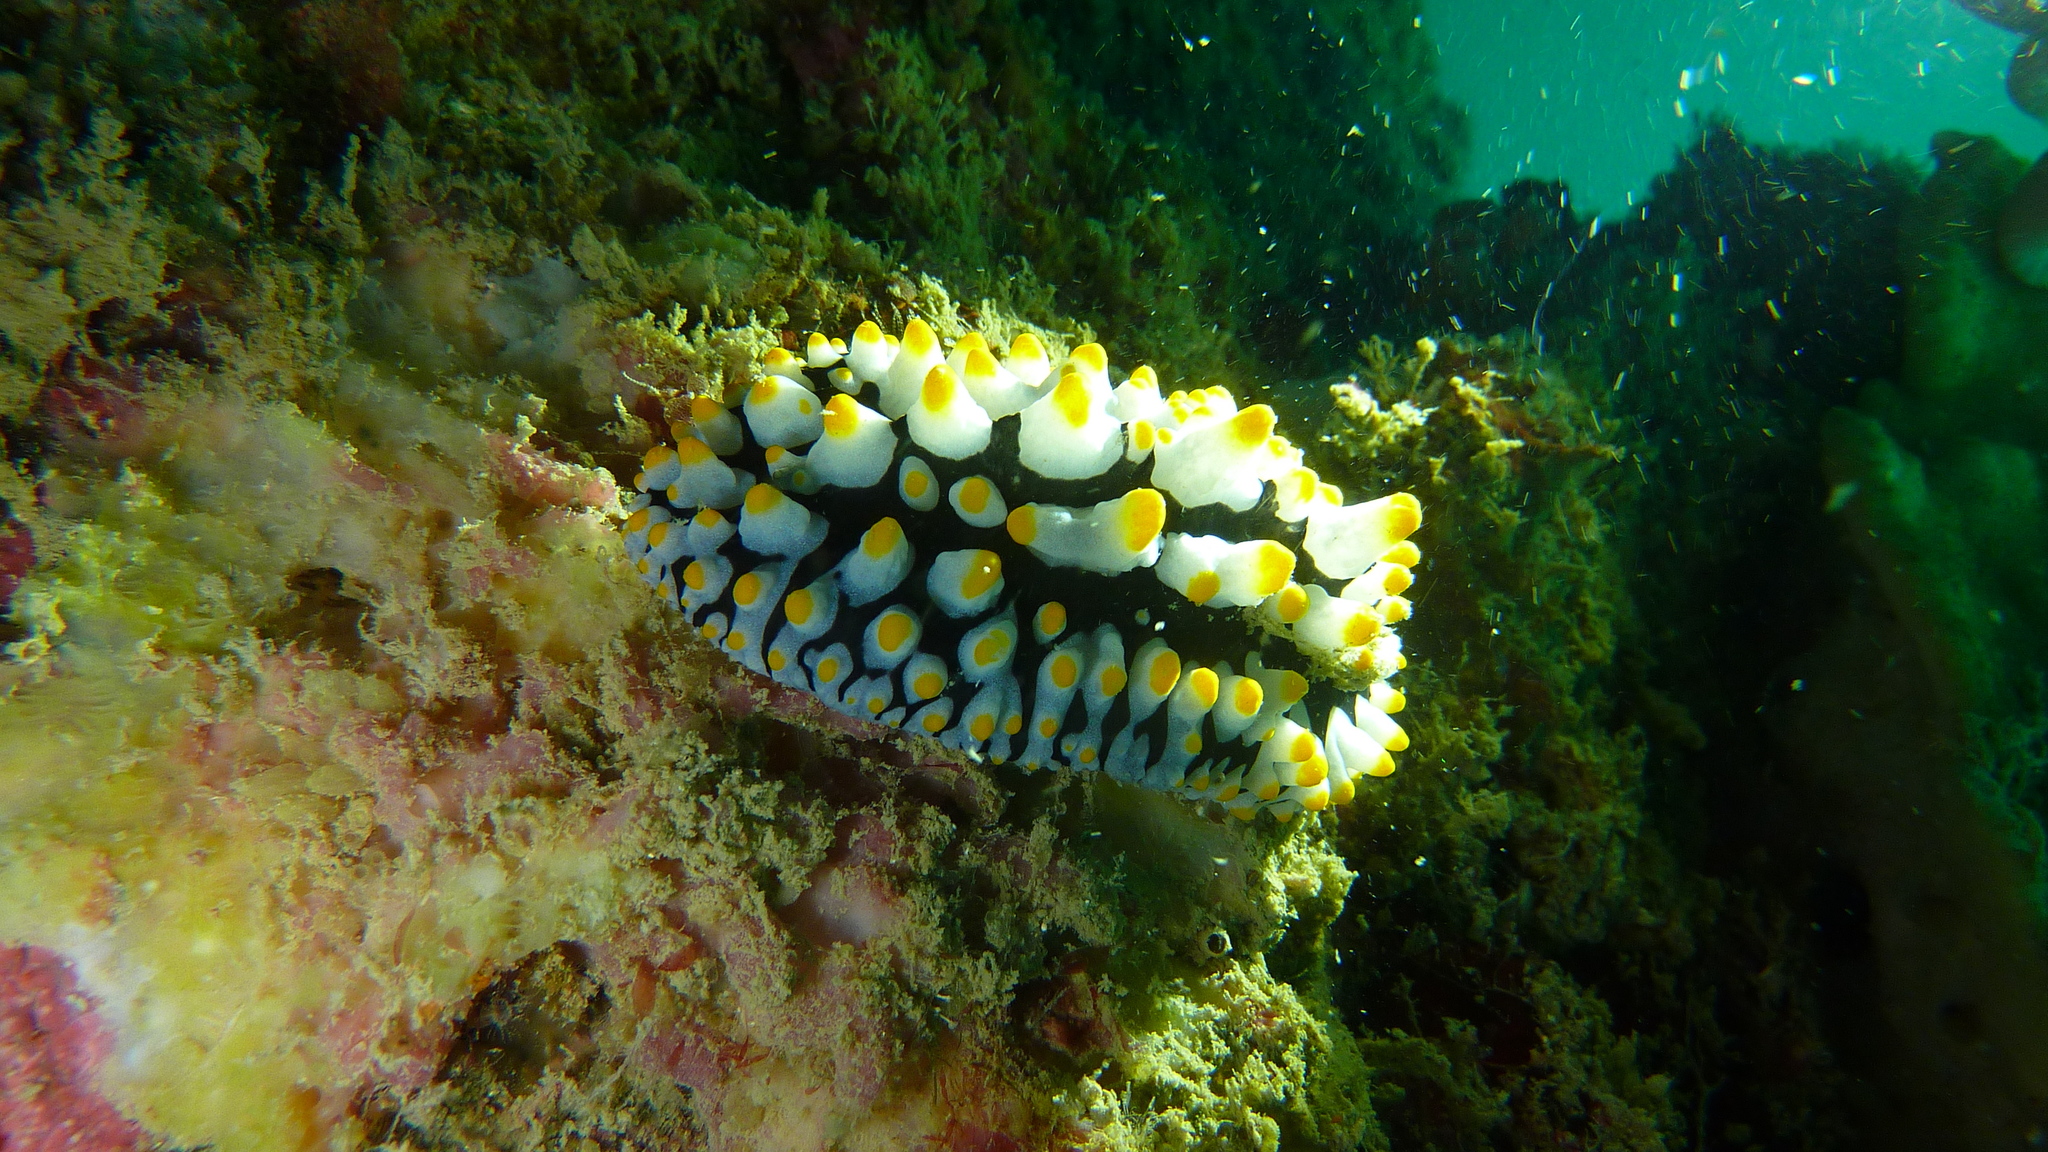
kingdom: Animalia
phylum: Mollusca
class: Gastropoda
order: Nudibranchia
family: Phyllidiidae
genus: Phyllidia
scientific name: Phyllidia varicosa
